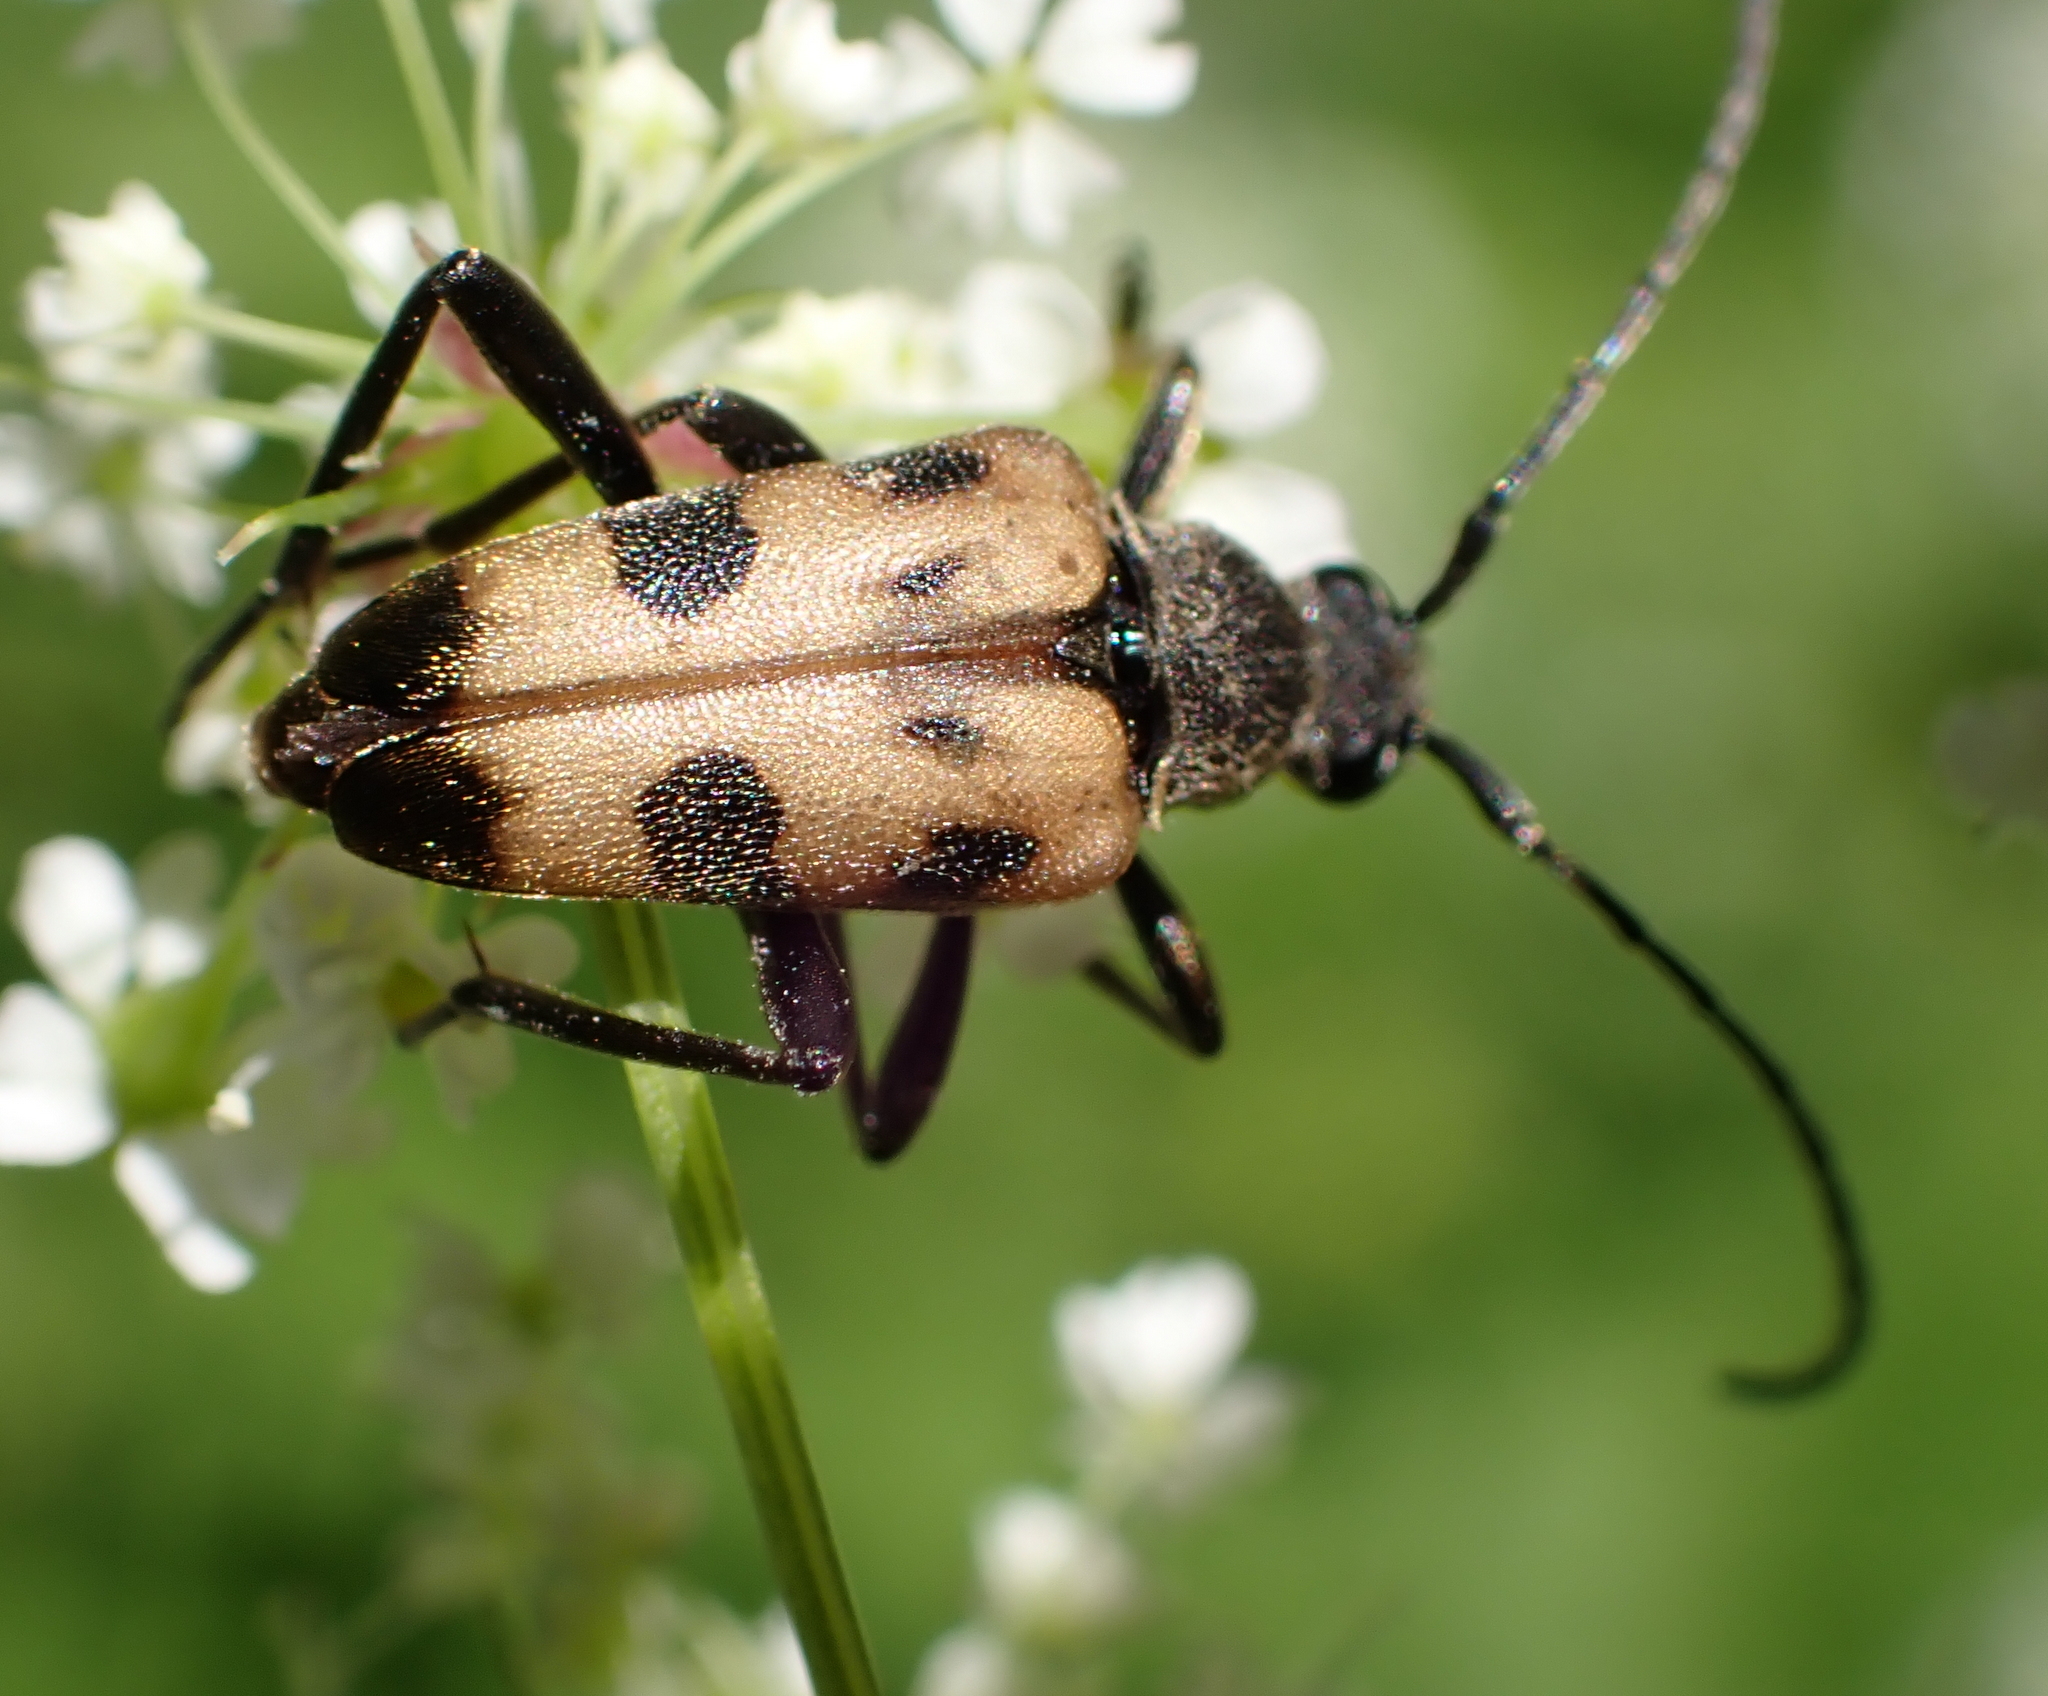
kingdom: Animalia
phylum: Arthropoda
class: Insecta
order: Coleoptera
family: Cerambycidae
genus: Pachytodes
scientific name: Pachytodes cerambyciformis
